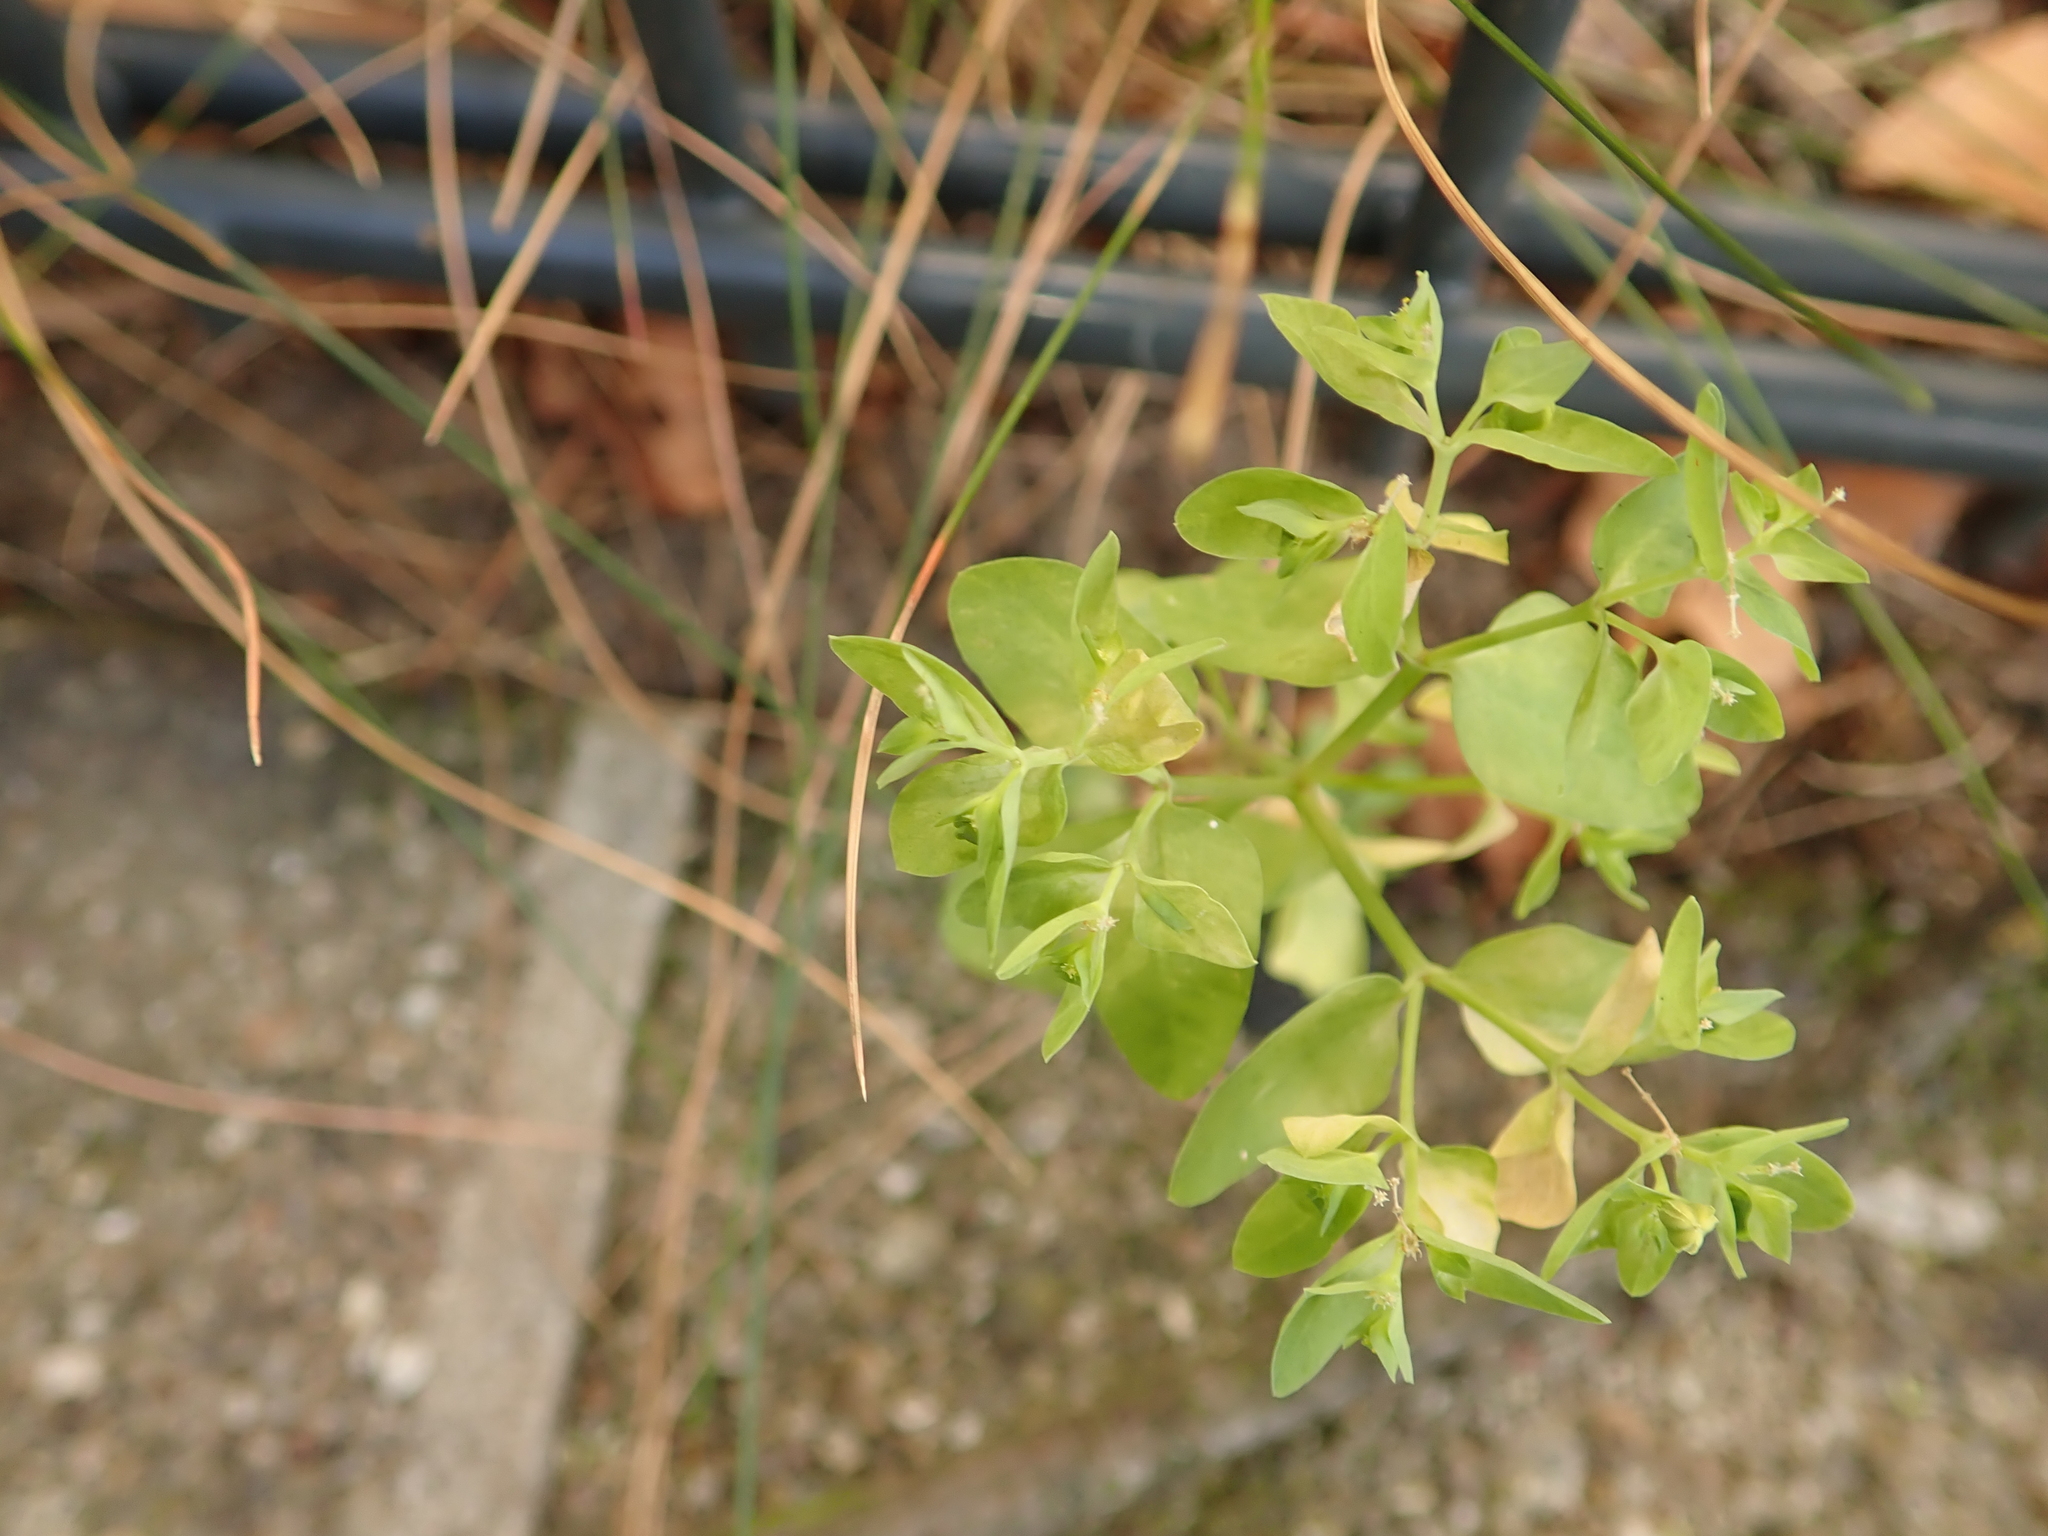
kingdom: Plantae
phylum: Tracheophyta
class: Magnoliopsida
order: Malpighiales
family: Euphorbiaceae
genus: Euphorbia
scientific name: Euphorbia peplus
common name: Petty spurge
